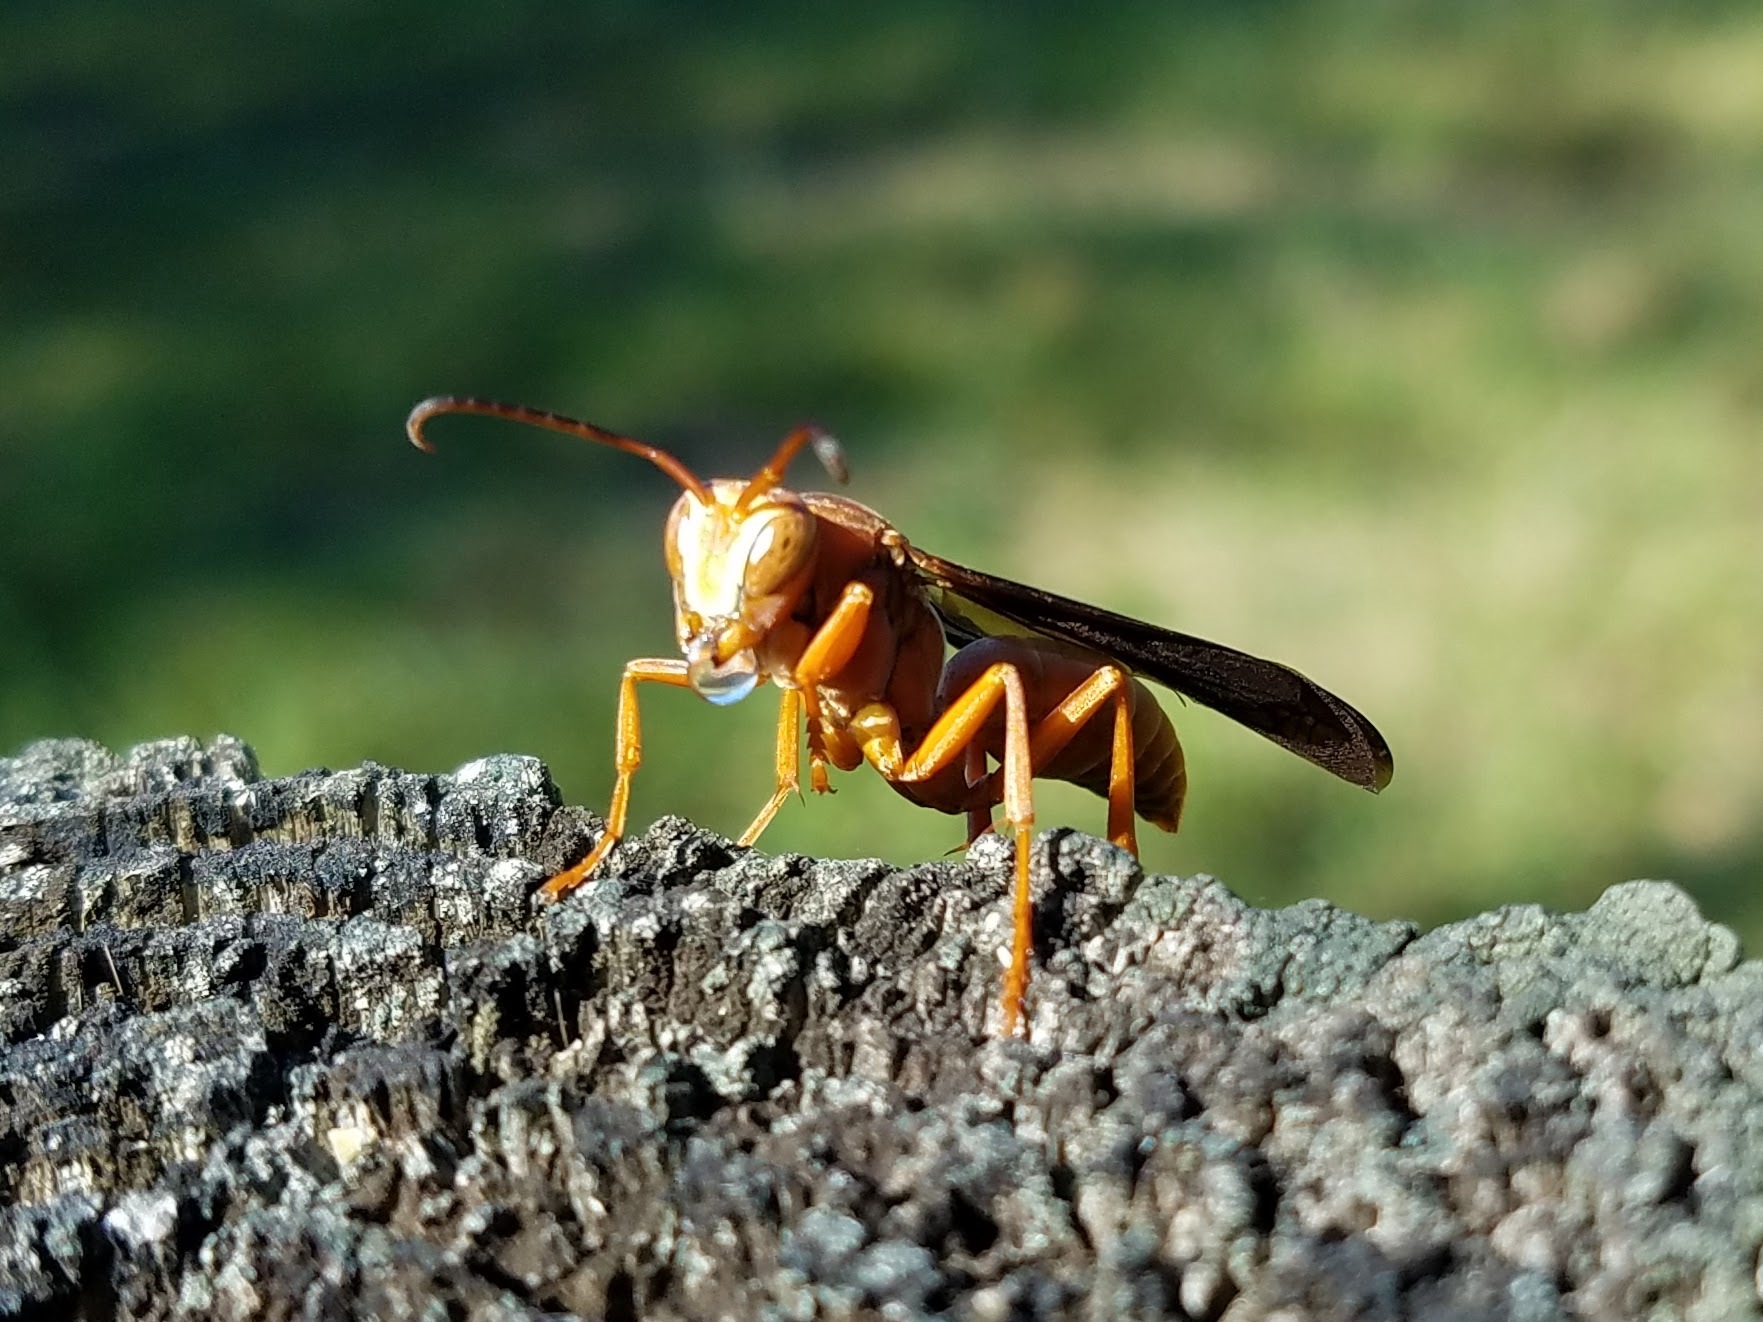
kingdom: Animalia
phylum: Arthropoda
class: Insecta
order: Hymenoptera
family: Vespidae
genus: Fuscopolistes
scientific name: Fuscopolistes
